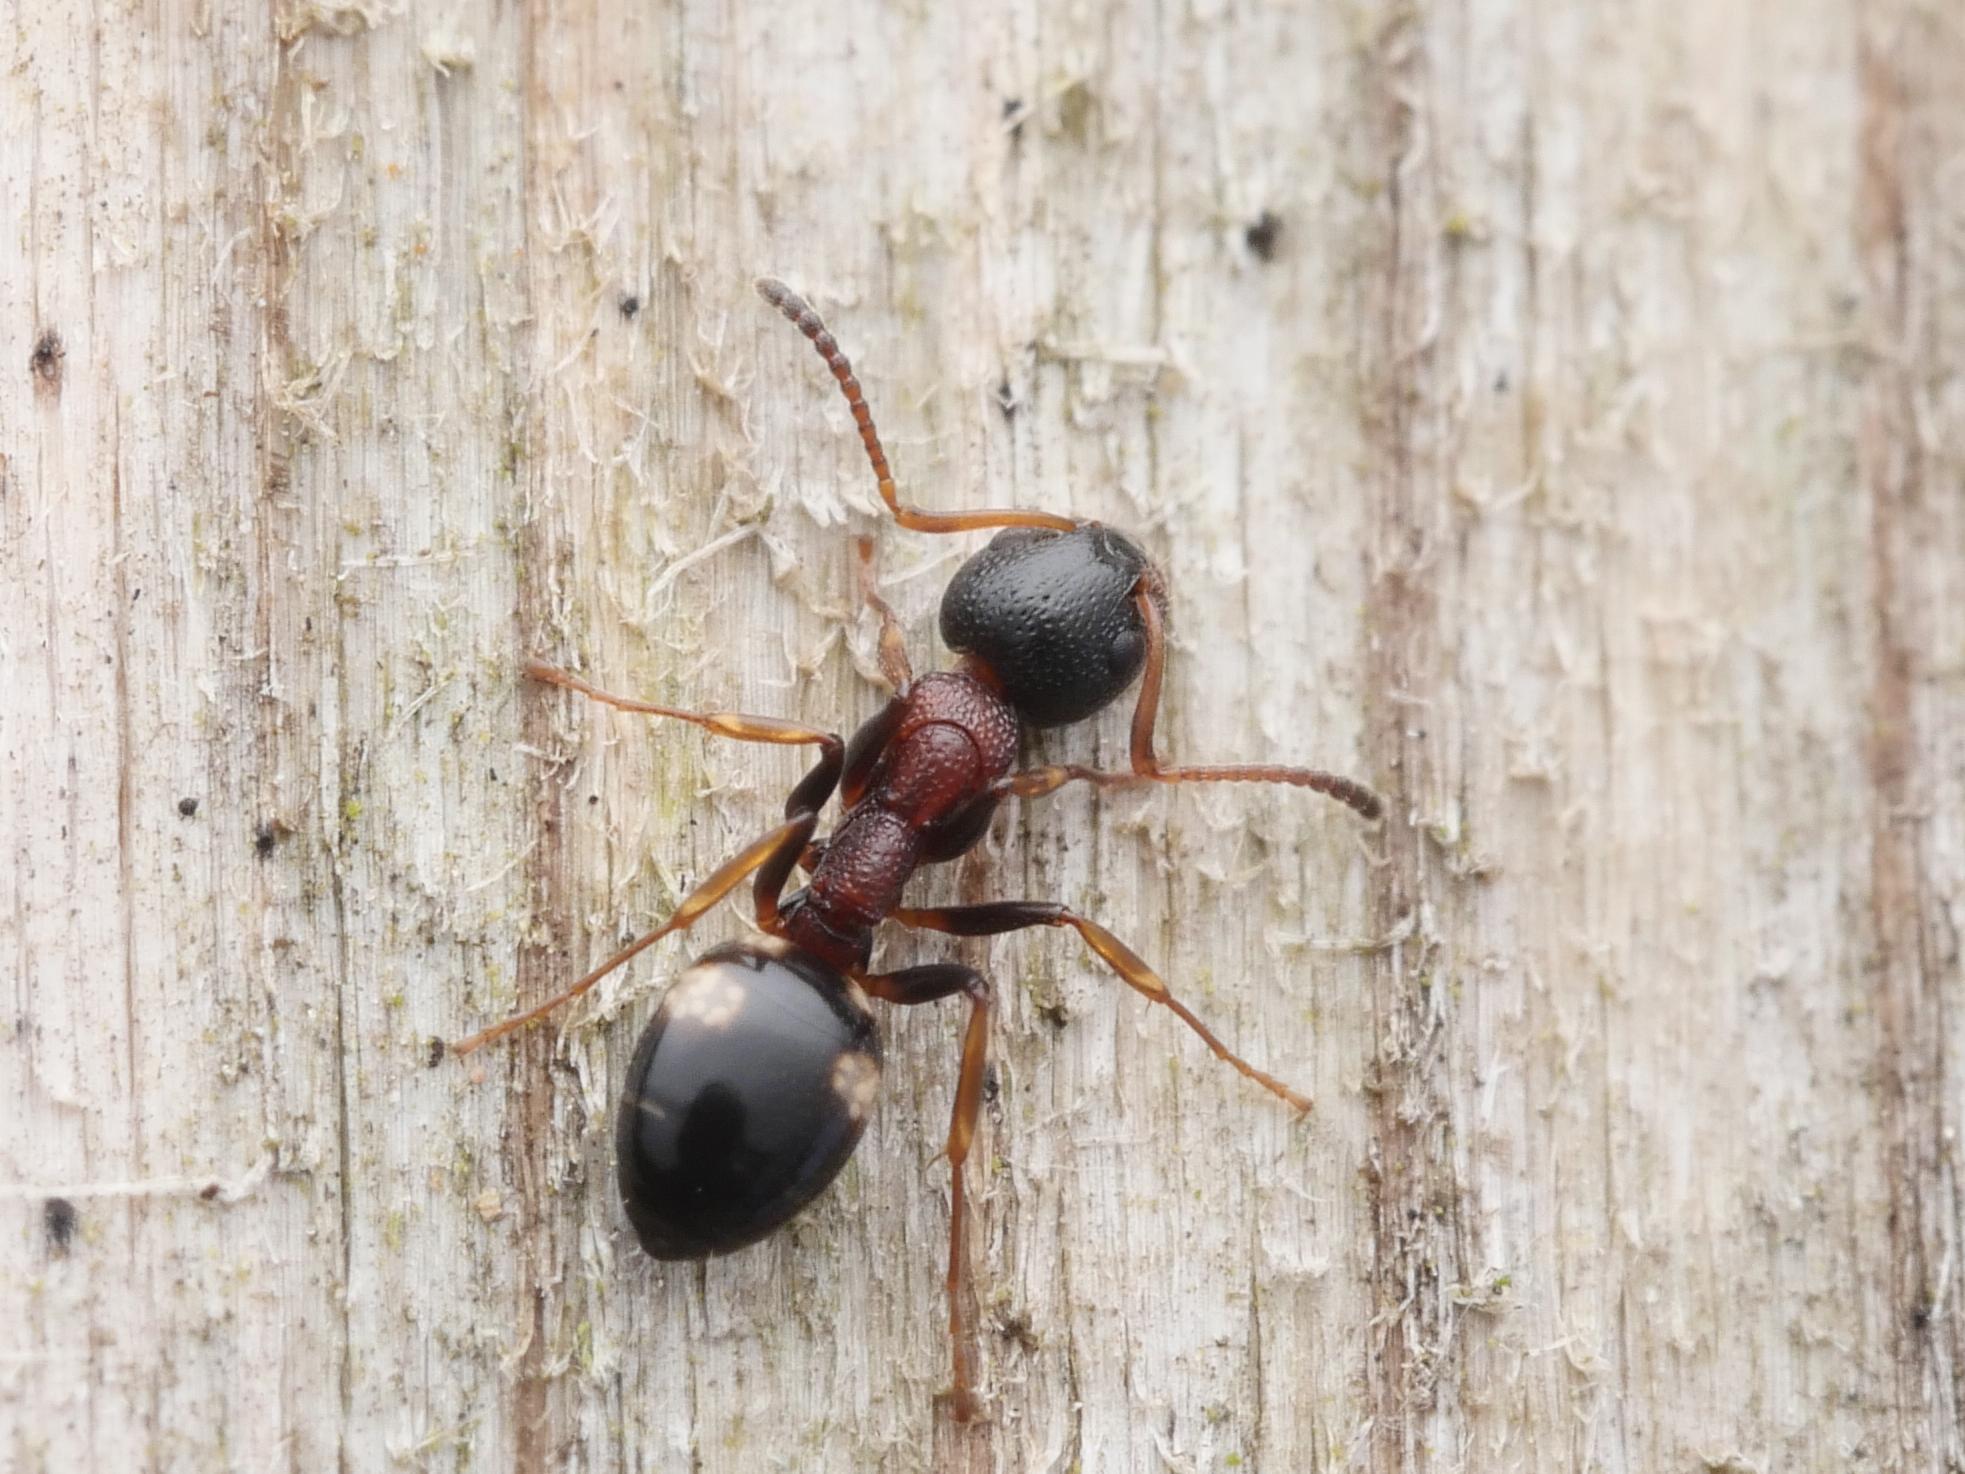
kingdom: Animalia
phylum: Arthropoda
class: Insecta
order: Hymenoptera
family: Formicidae
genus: Dolichoderus
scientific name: Dolichoderus quadripunctatus
